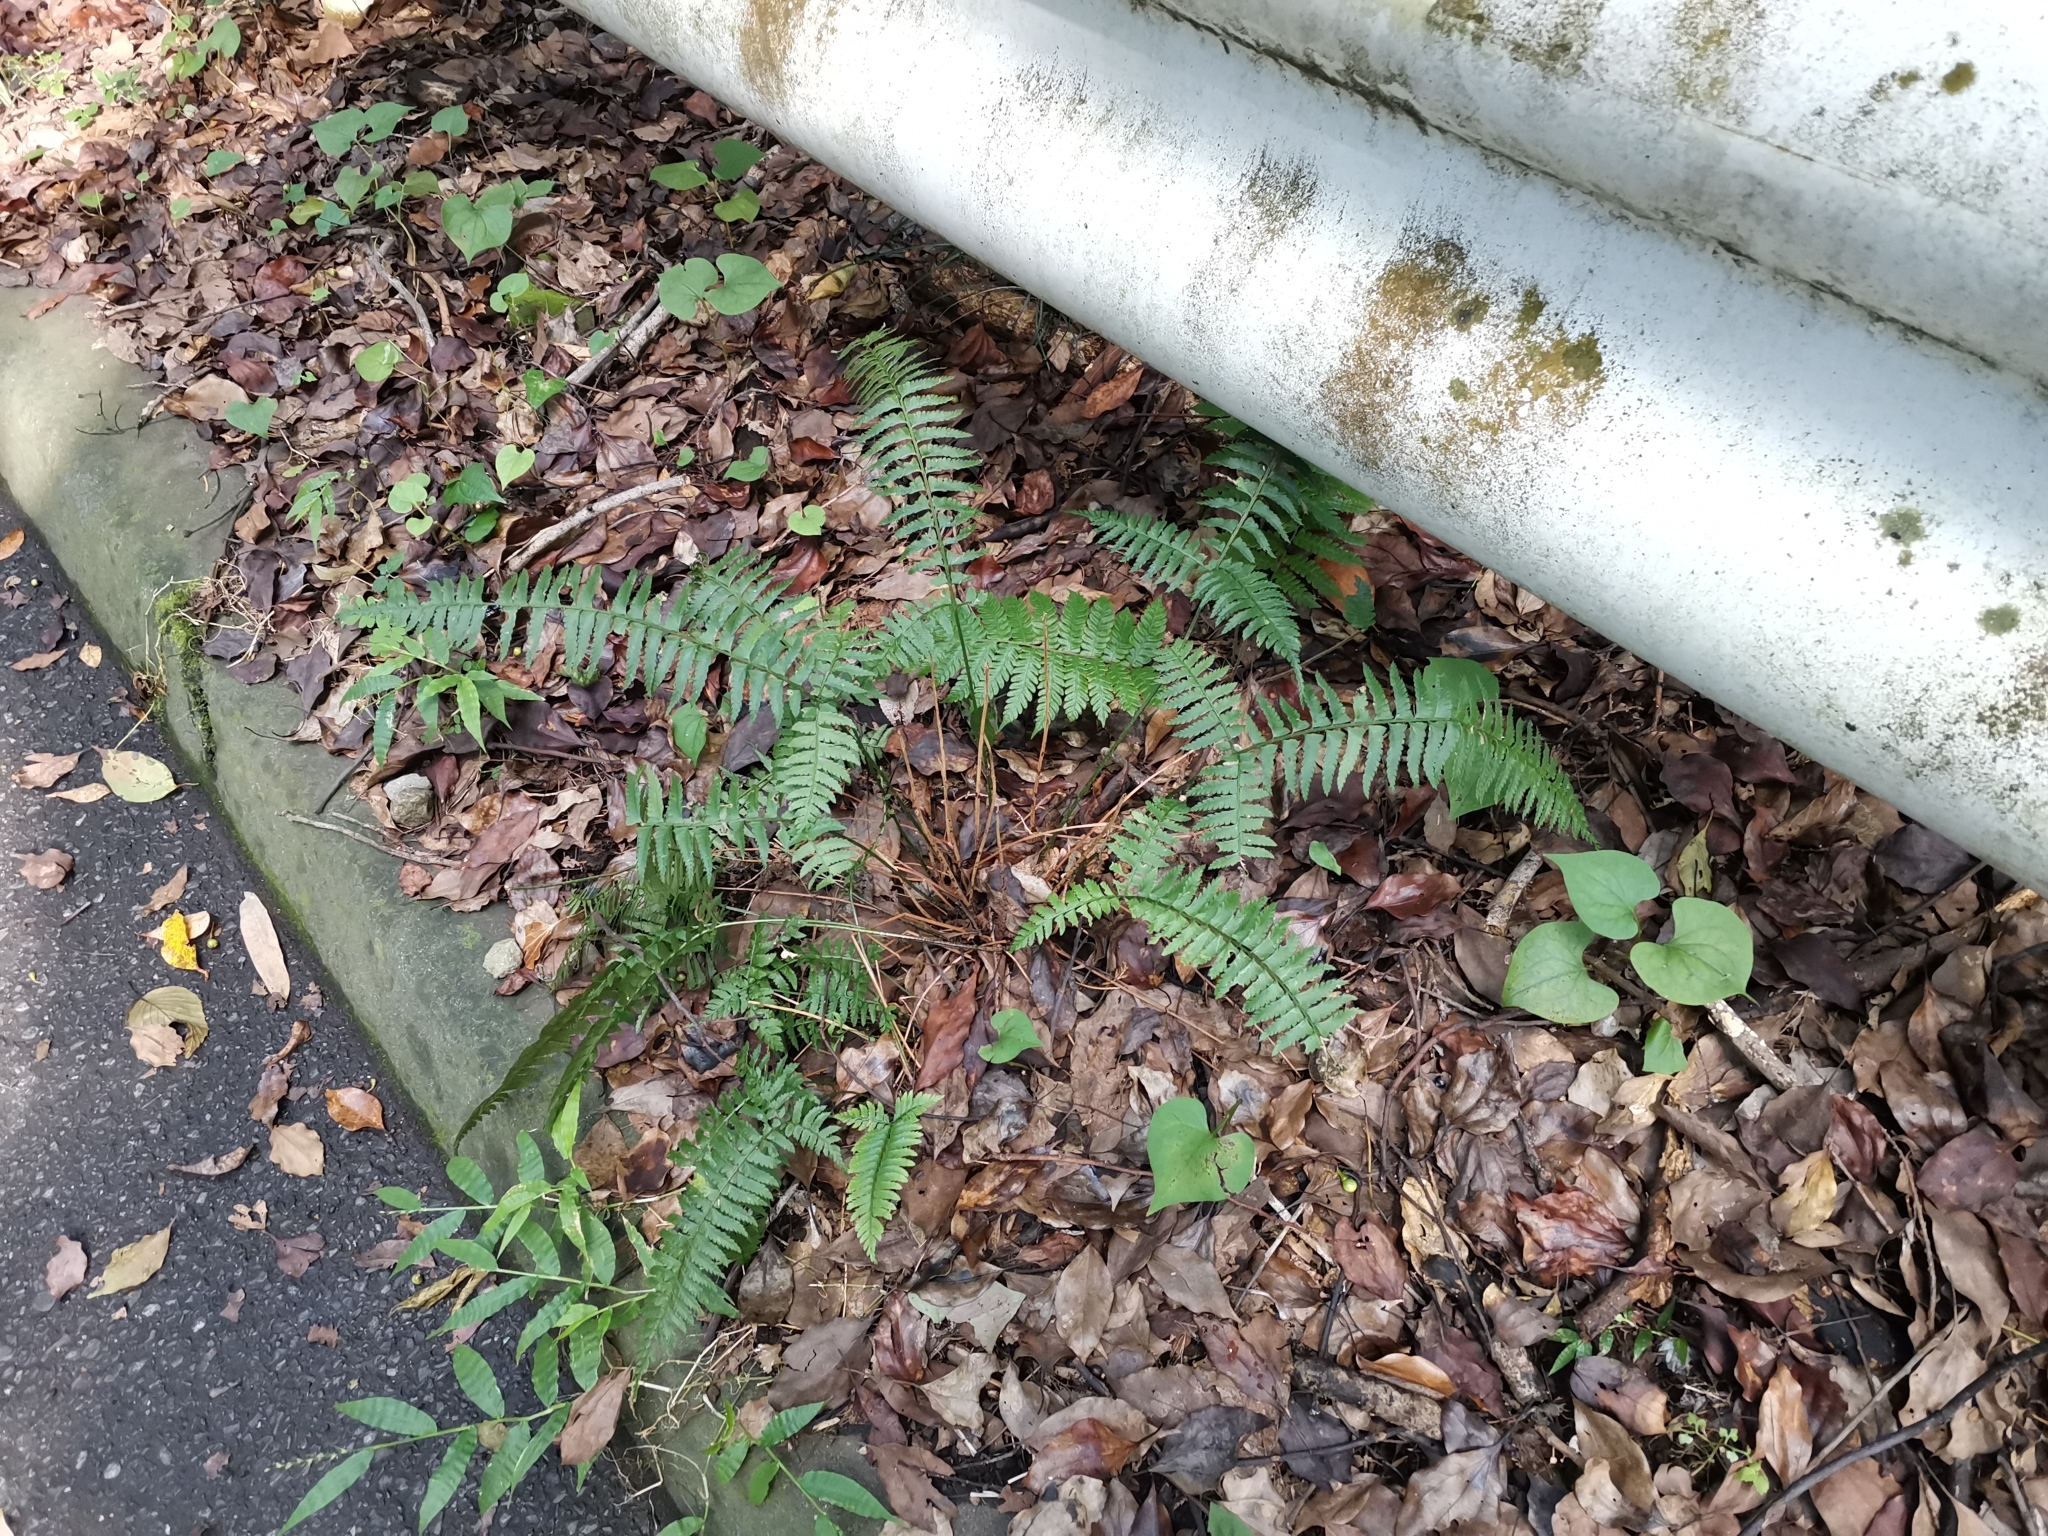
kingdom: Plantae
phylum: Tracheophyta
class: Polypodiopsida
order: Polypodiales
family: Dryopteridaceae
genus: Polystichum
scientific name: Polystichum tripteron
